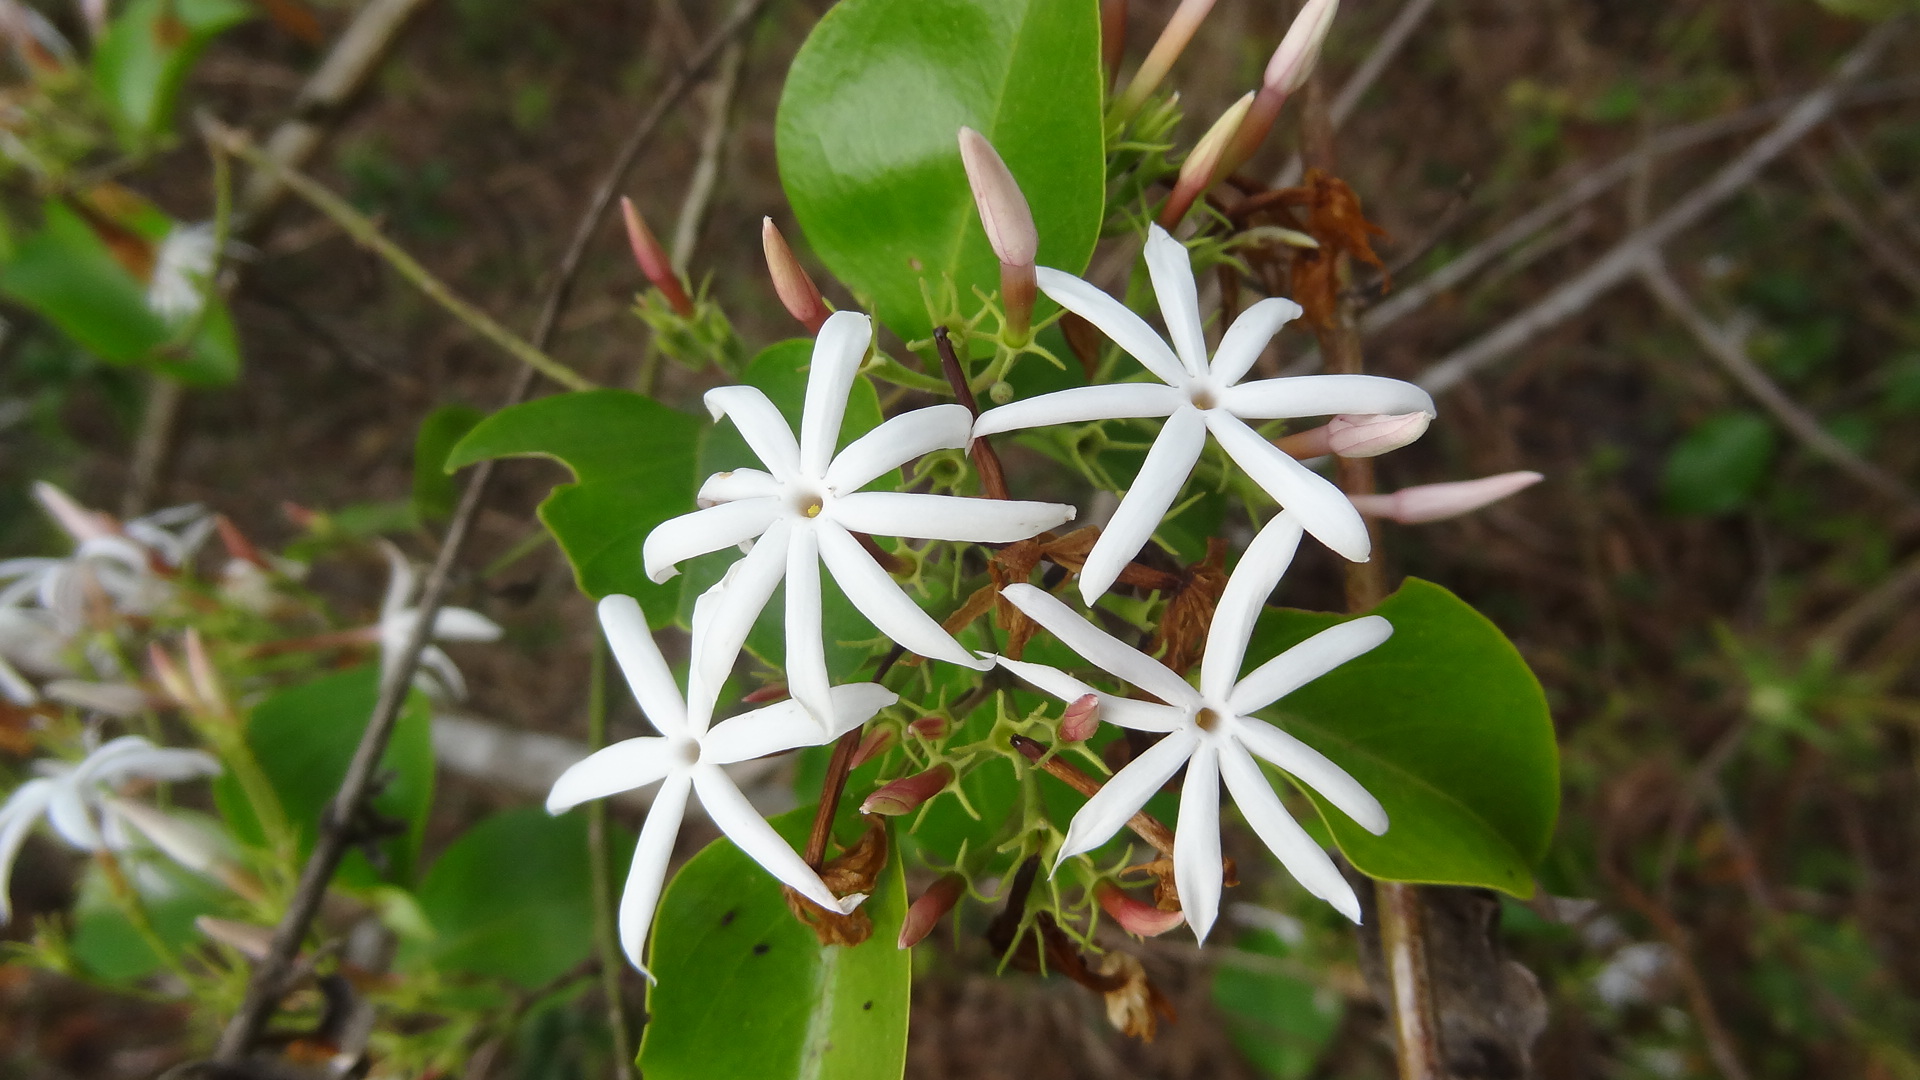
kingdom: Plantae
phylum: Tracheophyta
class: Magnoliopsida
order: Lamiales
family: Oleaceae
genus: Jasminum
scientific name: Jasminum malabaricum
